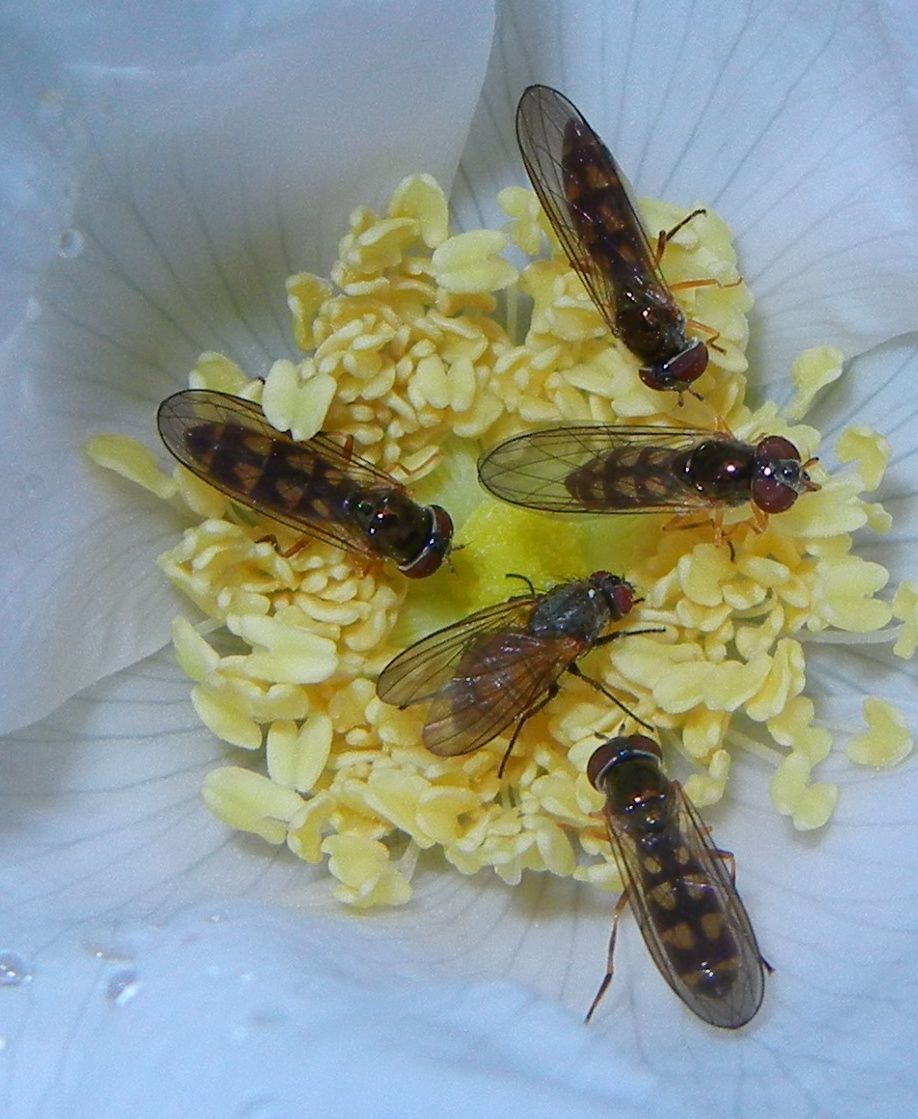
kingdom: Animalia
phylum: Arthropoda
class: Insecta
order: Diptera
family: Syrphidae
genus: Melanostoma
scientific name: Melanostoma scalare
